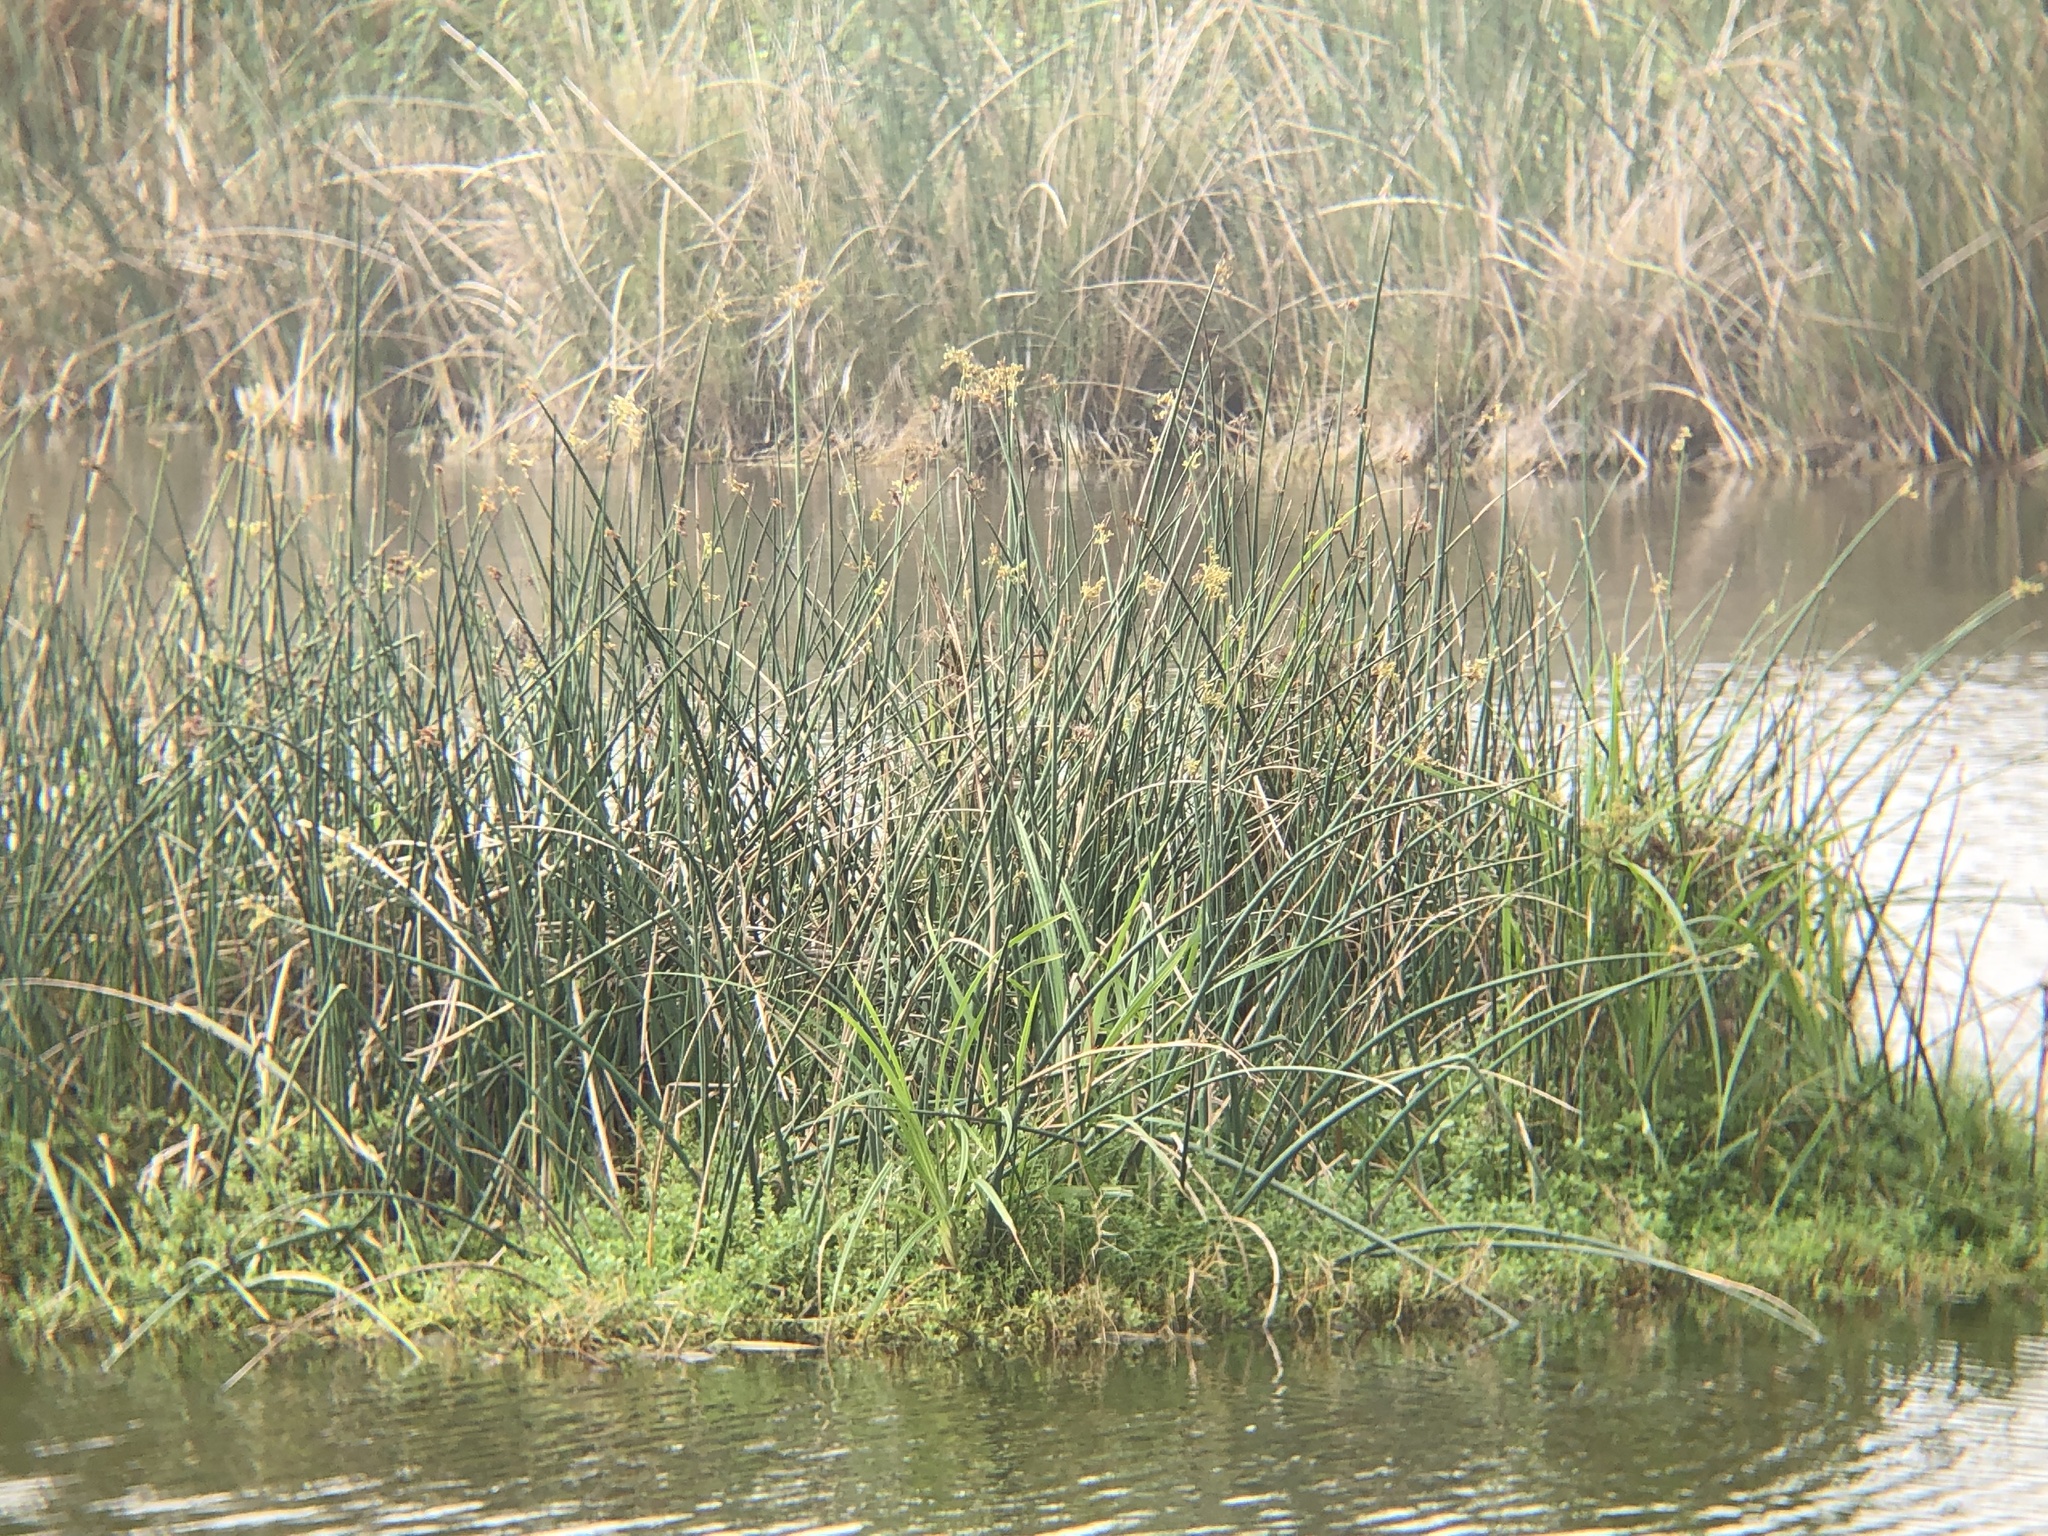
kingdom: Plantae
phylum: Tracheophyta
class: Liliopsida
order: Poales
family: Cyperaceae
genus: Schoenoplectus
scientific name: Schoenoplectus tabernaemontani
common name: Grey club-rush
